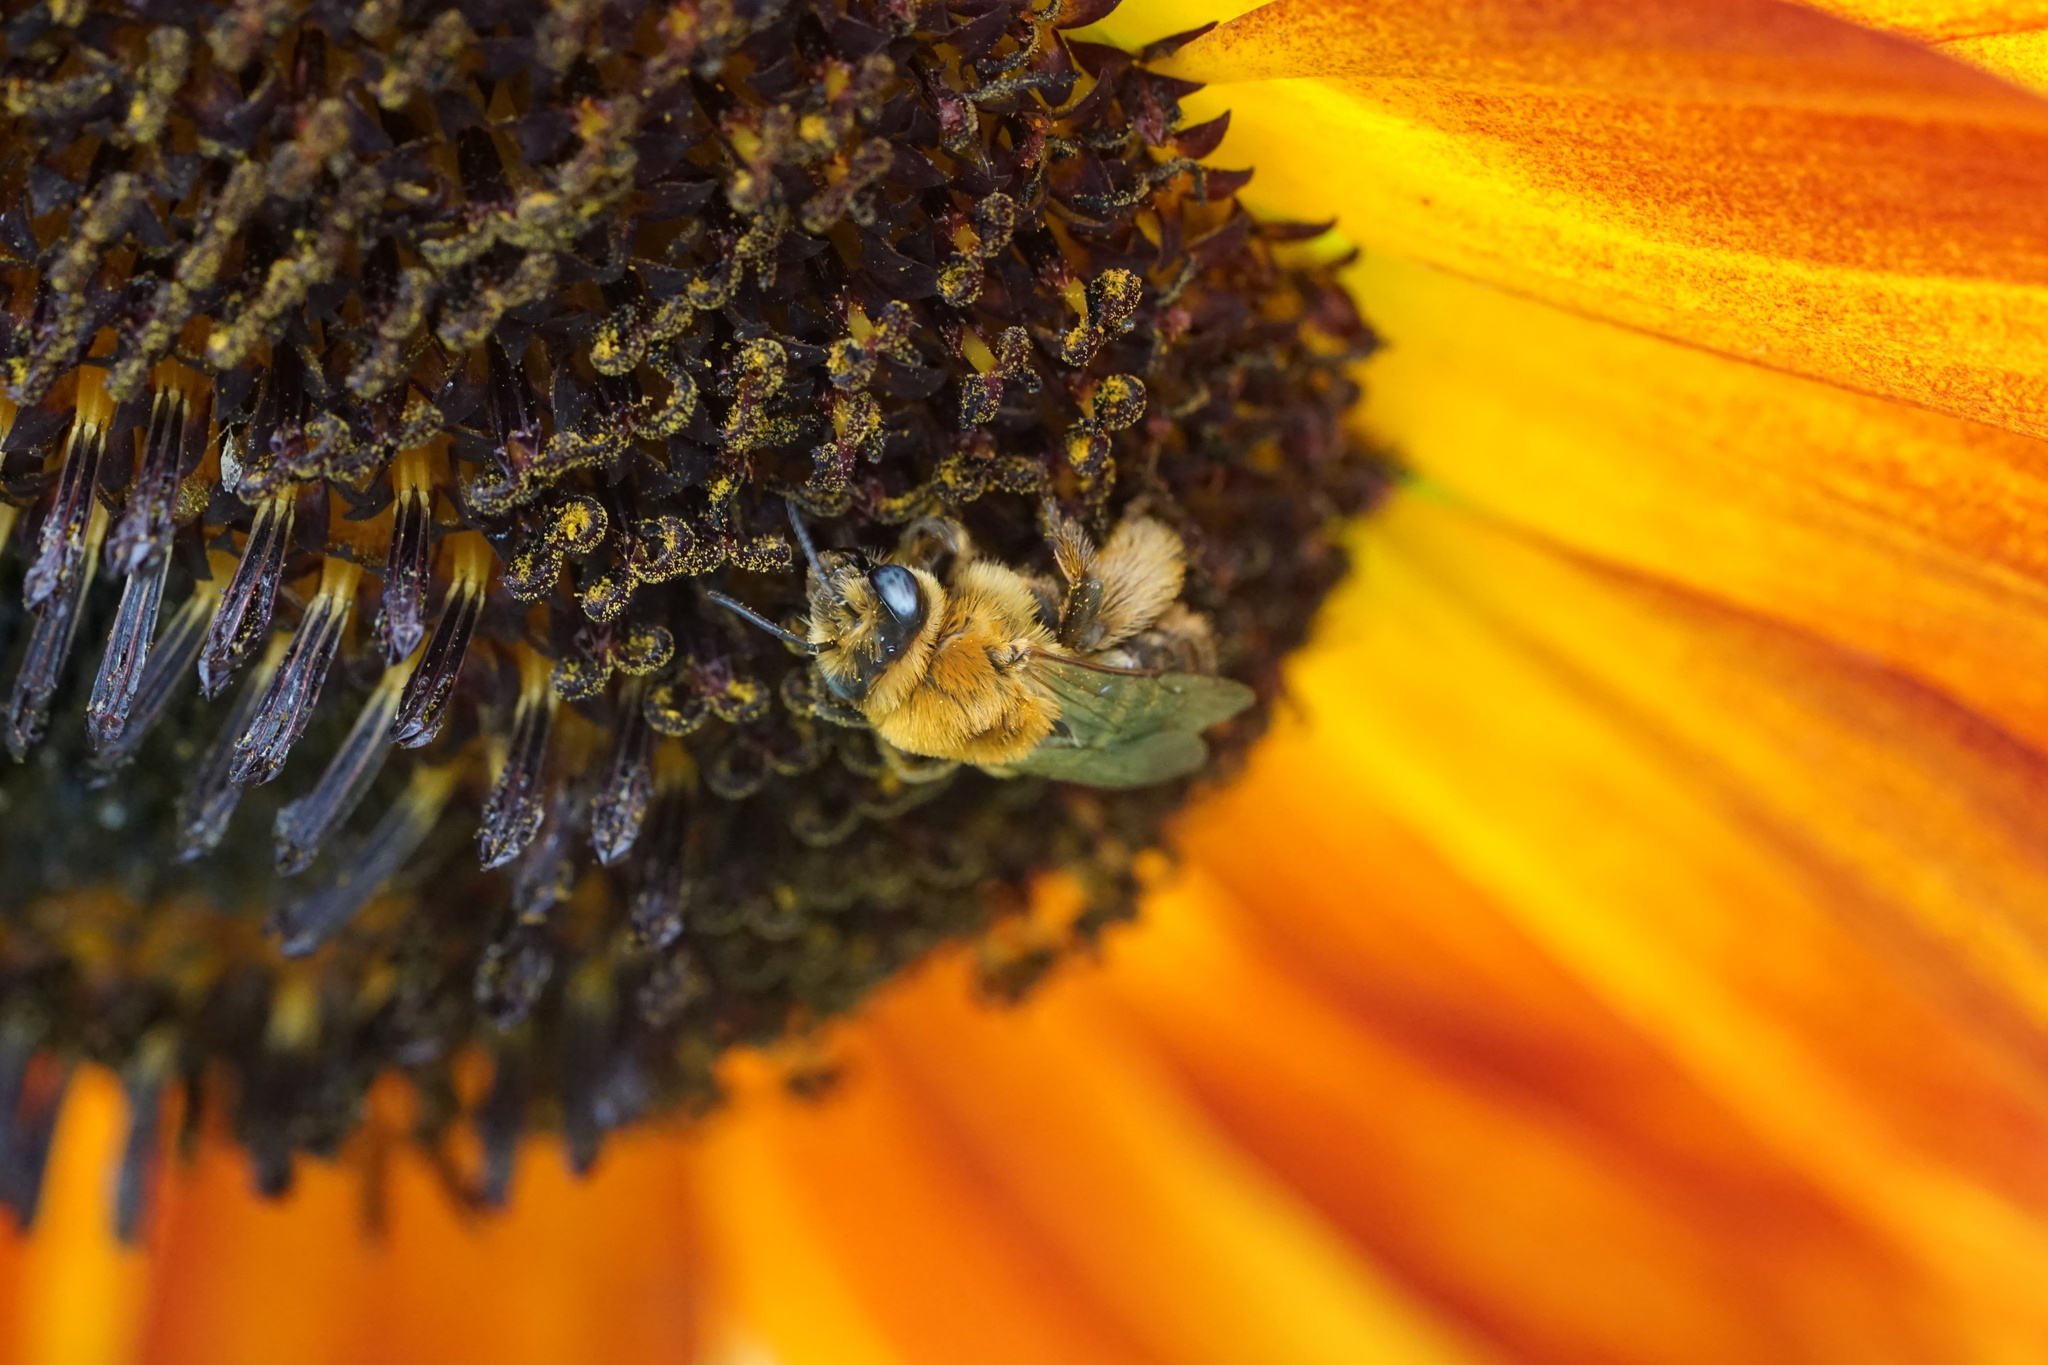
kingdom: Animalia
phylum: Arthropoda
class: Insecta
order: Hymenoptera
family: Apidae
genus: Melissodes
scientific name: Melissodes trinodis
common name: Dark-veined longhorn
